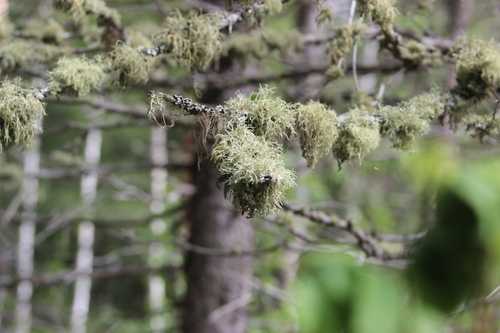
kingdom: Fungi
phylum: Ascomycota
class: Lecanoromycetes
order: Lecanorales
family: Parmeliaceae
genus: Evernia
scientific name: Evernia mesomorpha
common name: Boreal oak moss lichen
